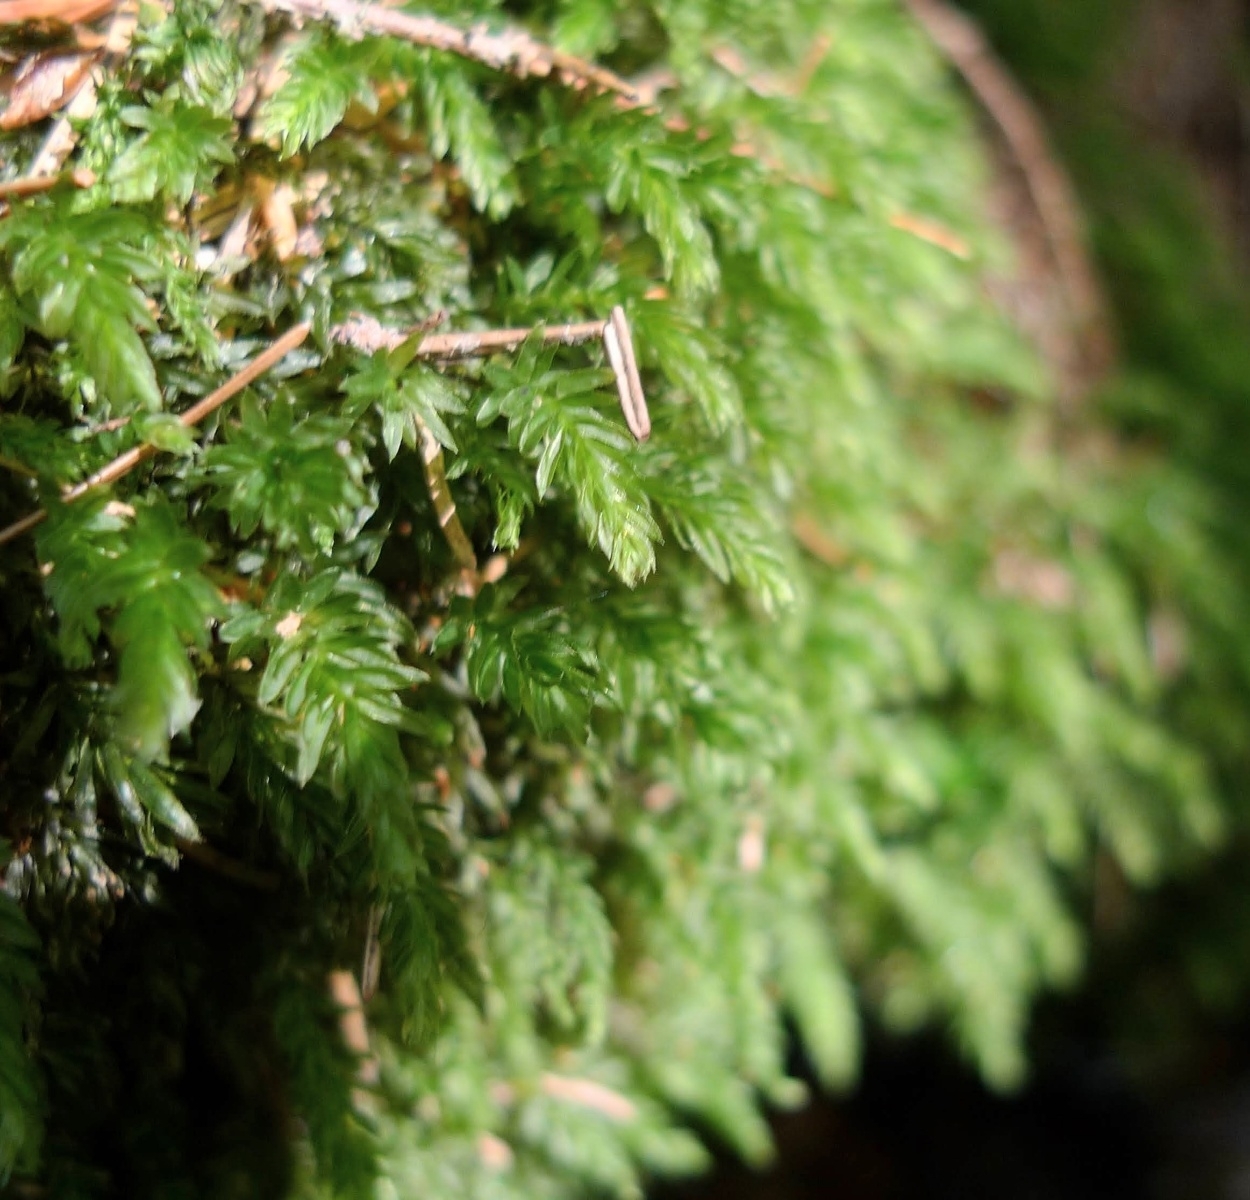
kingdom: Plantae
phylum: Bryophyta
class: Bryopsida
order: Bryales
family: Mniaceae
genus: Mnium
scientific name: Mnium hornum
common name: Swan's-neck leafy moss
